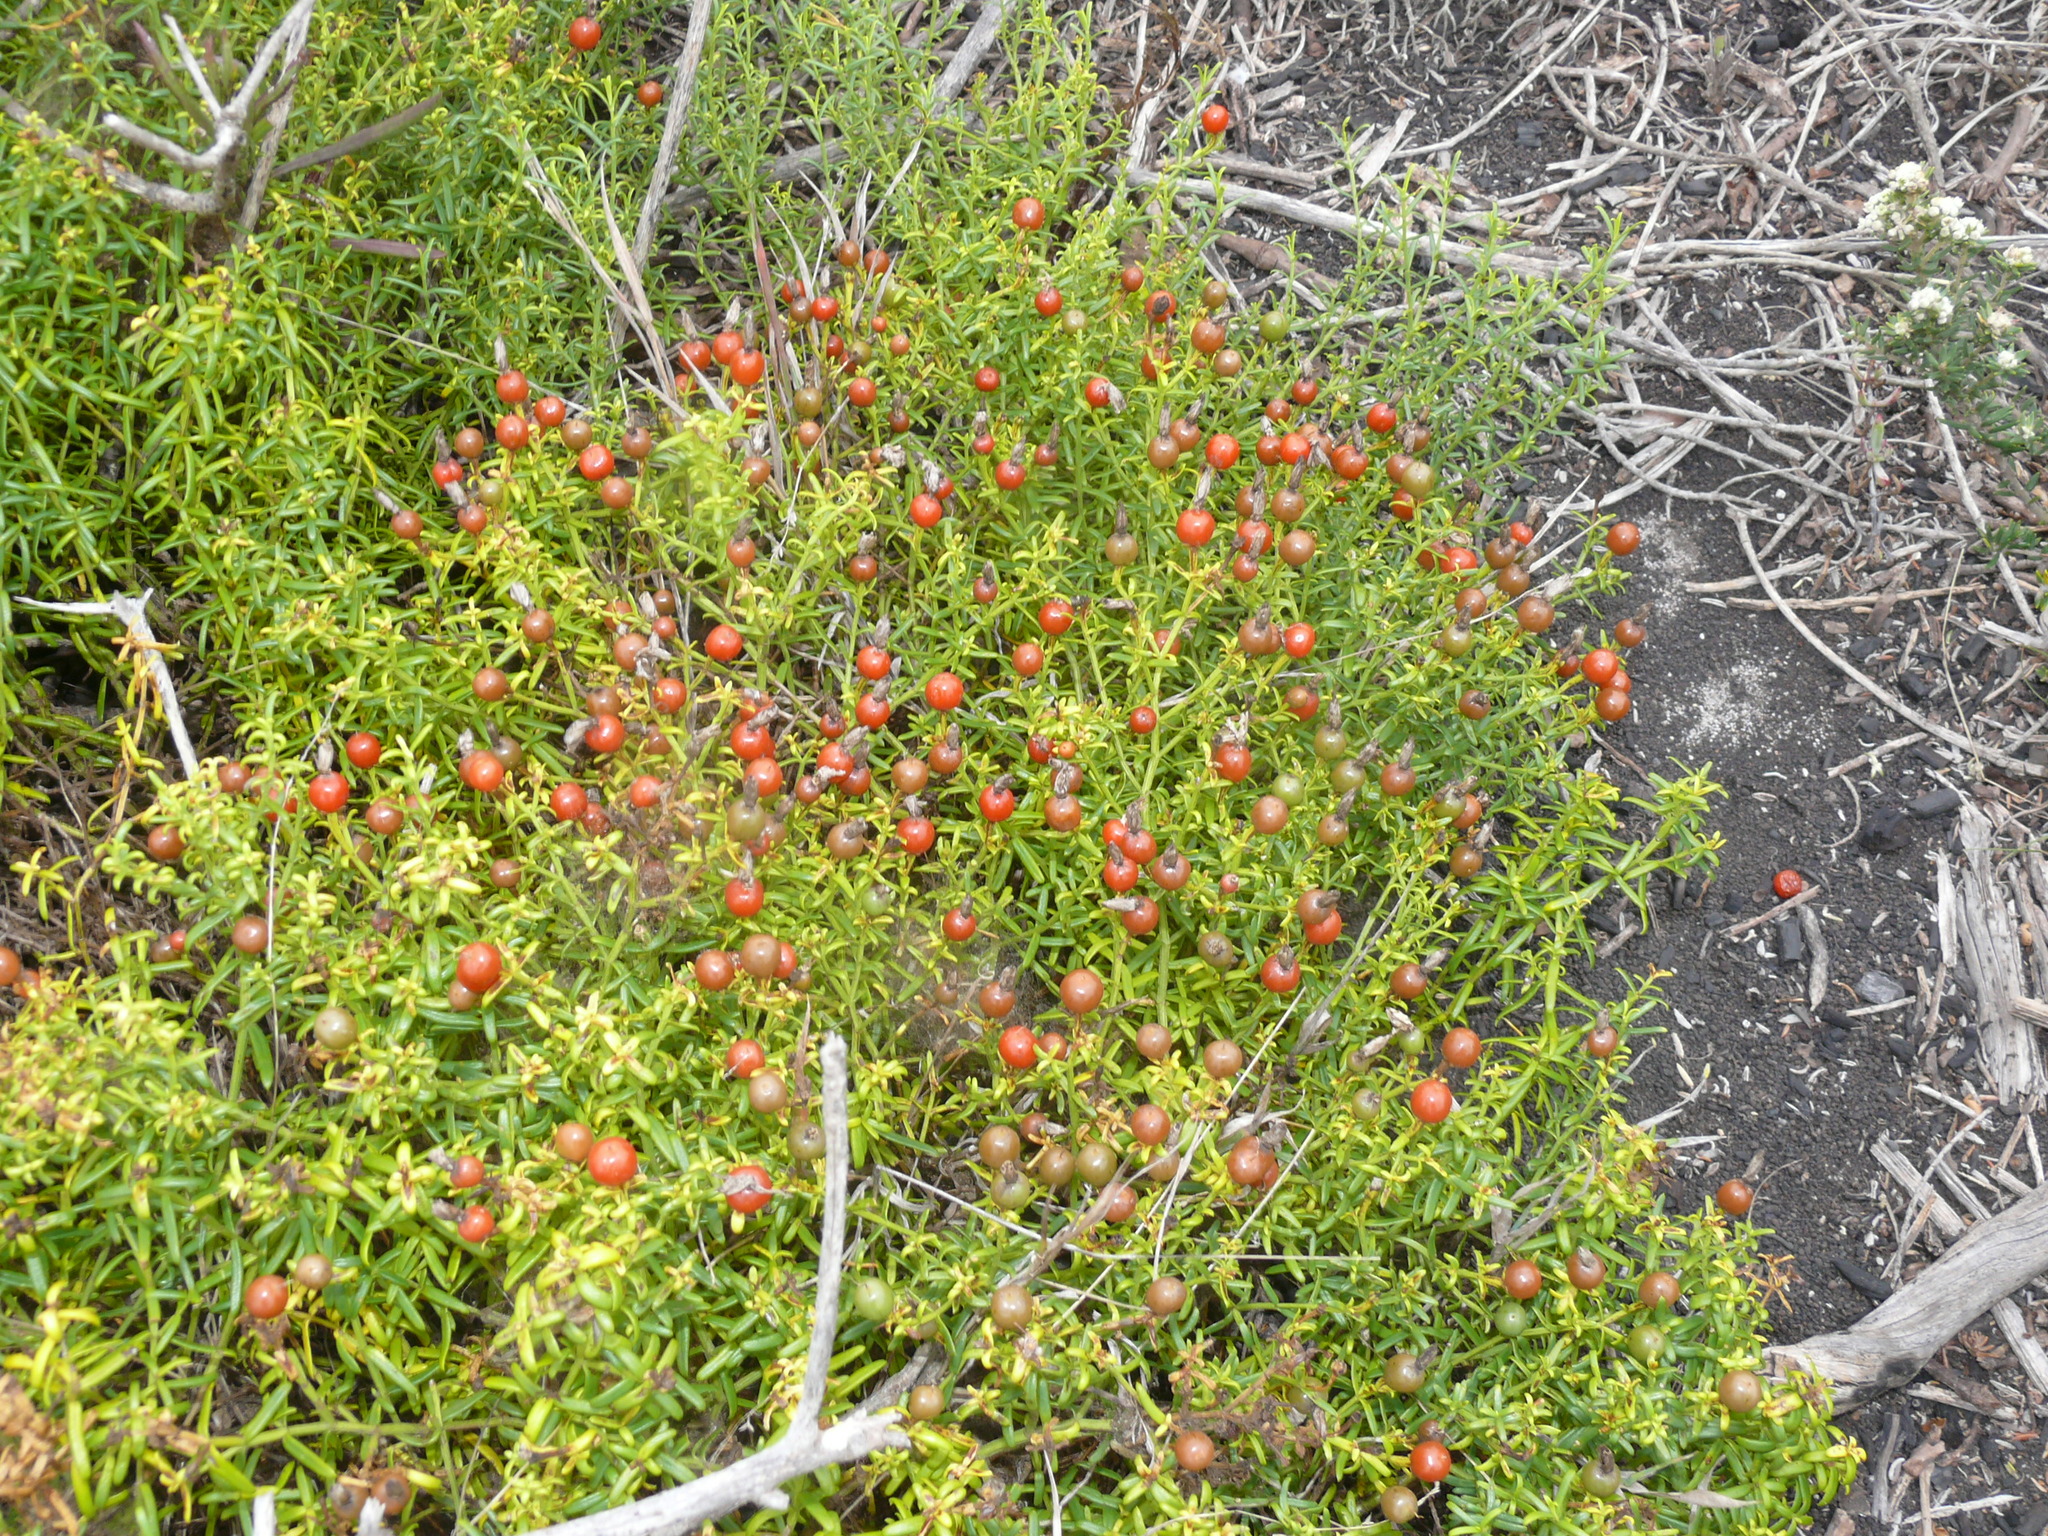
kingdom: Plantae
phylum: Tracheophyta
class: Magnoliopsida
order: Gentianales
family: Gentianaceae
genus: Chironia
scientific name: Chironia baccifera
